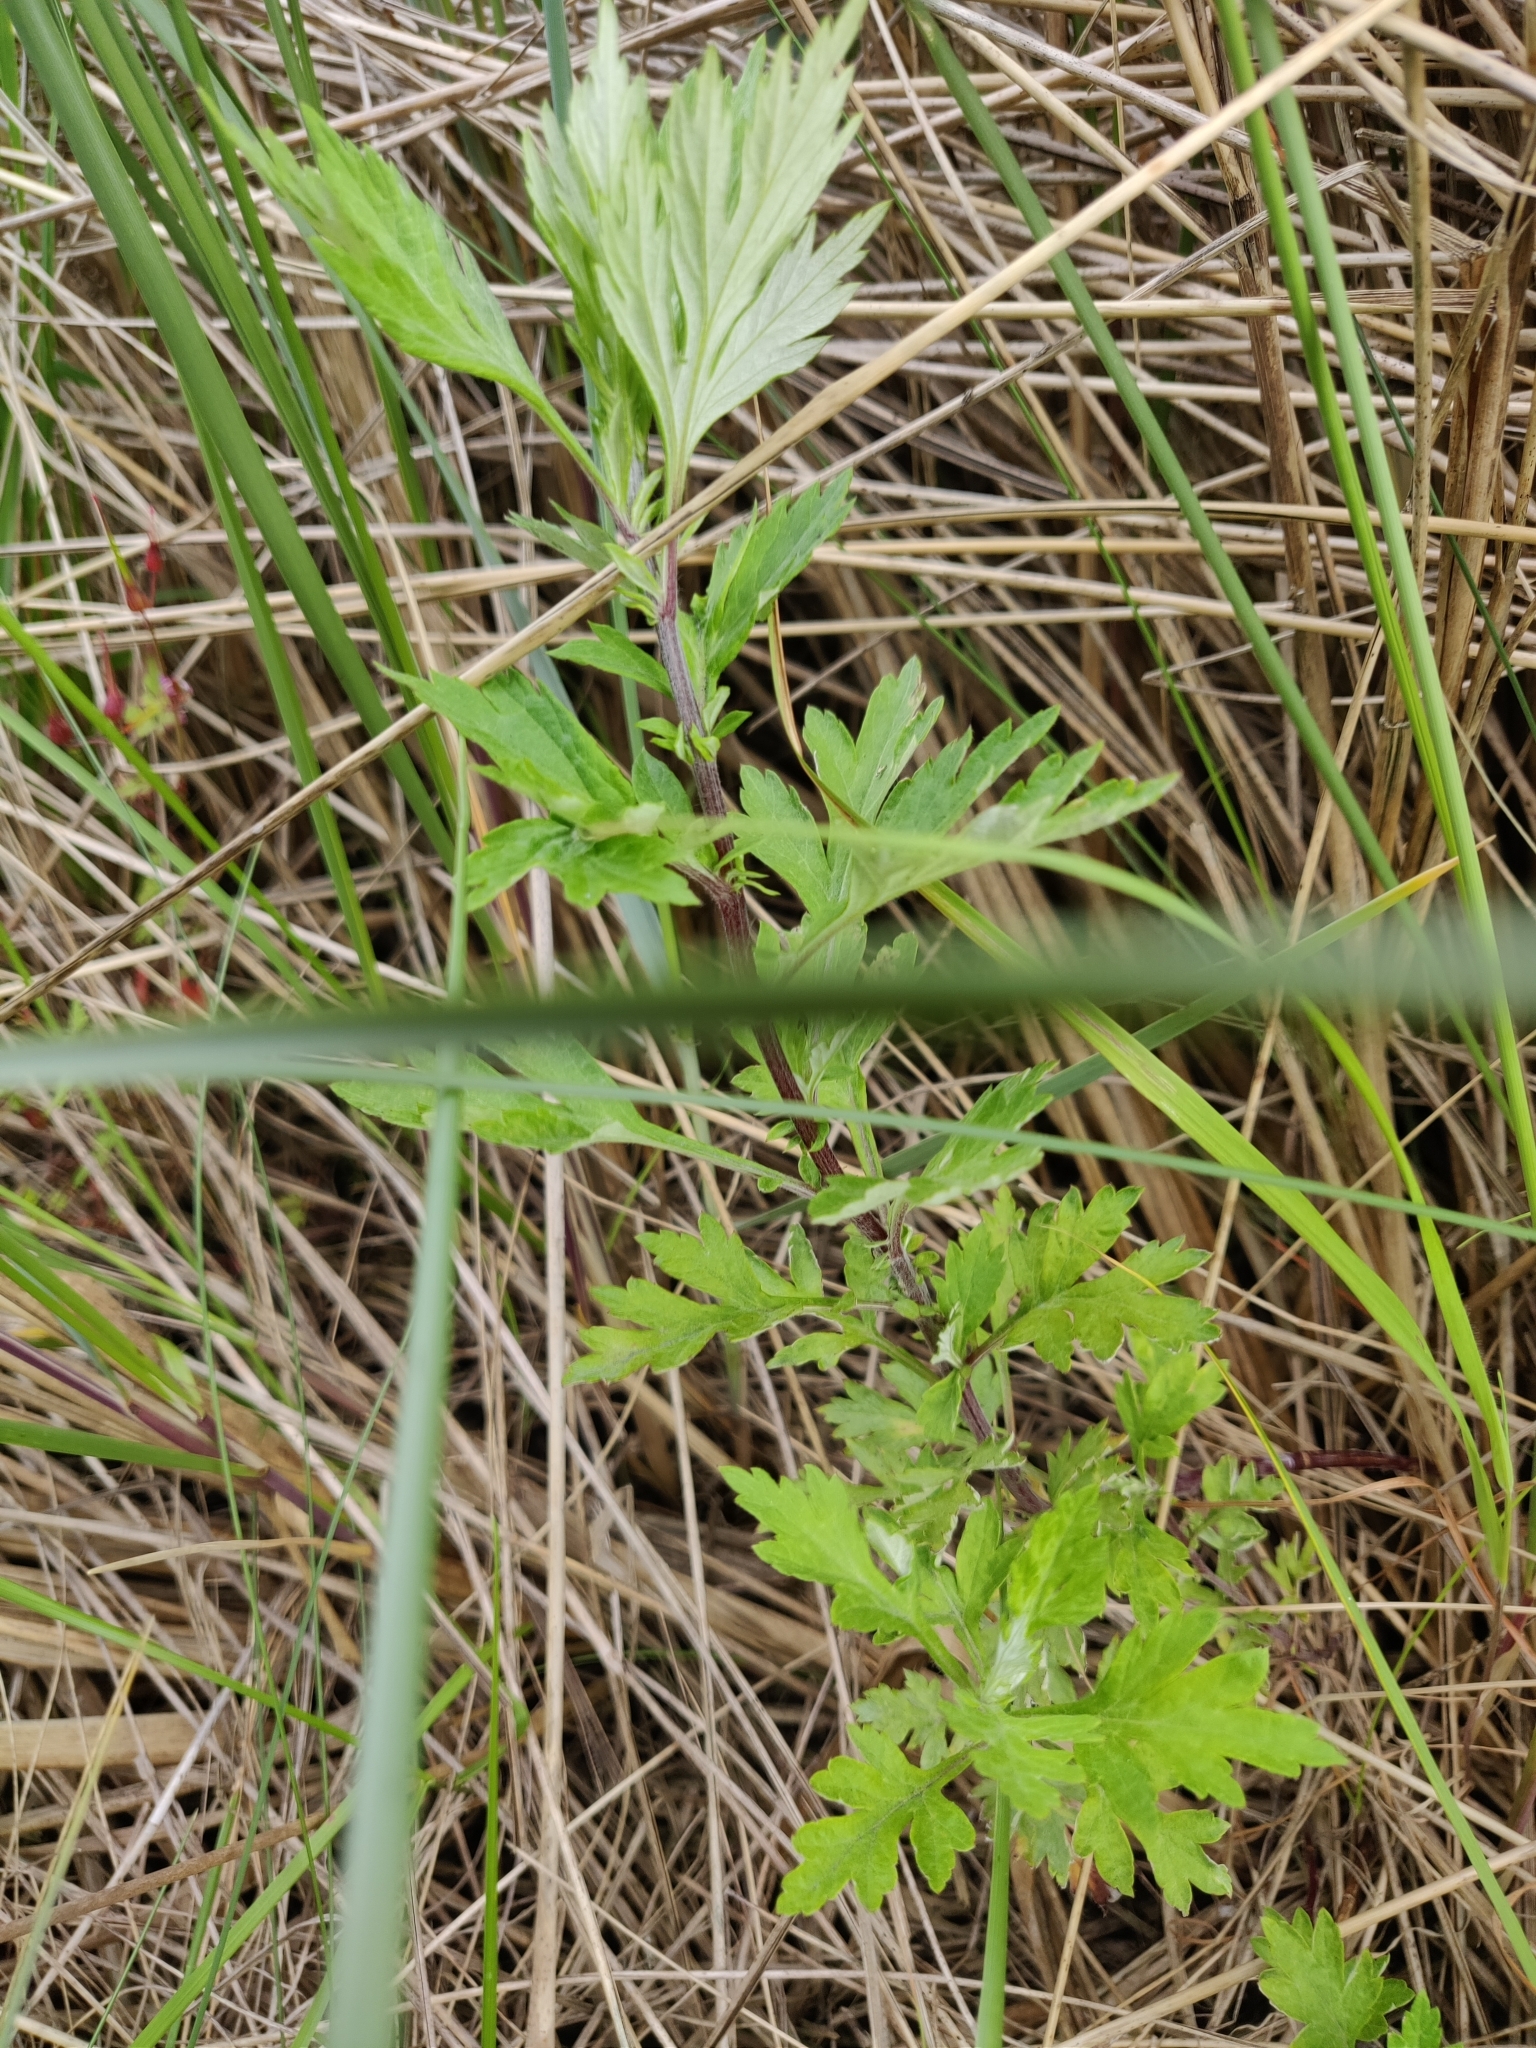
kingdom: Plantae
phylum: Tracheophyta
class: Magnoliopsida
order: Asterales
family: Asteraceae
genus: Artemisia
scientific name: Artemisia vulgaris
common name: Mugwort
